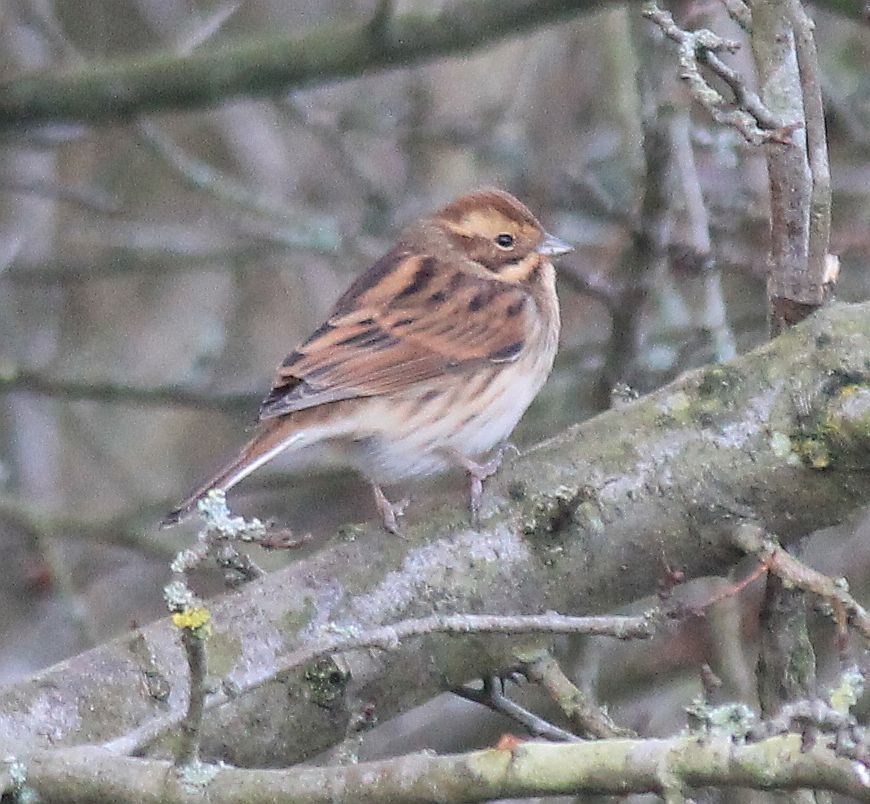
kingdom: Animalia
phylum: Chordata
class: Aves
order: Passeriformes
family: Emberizidae
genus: Emberiza
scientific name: Emberiza schoeniclus
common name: Reed bunting
